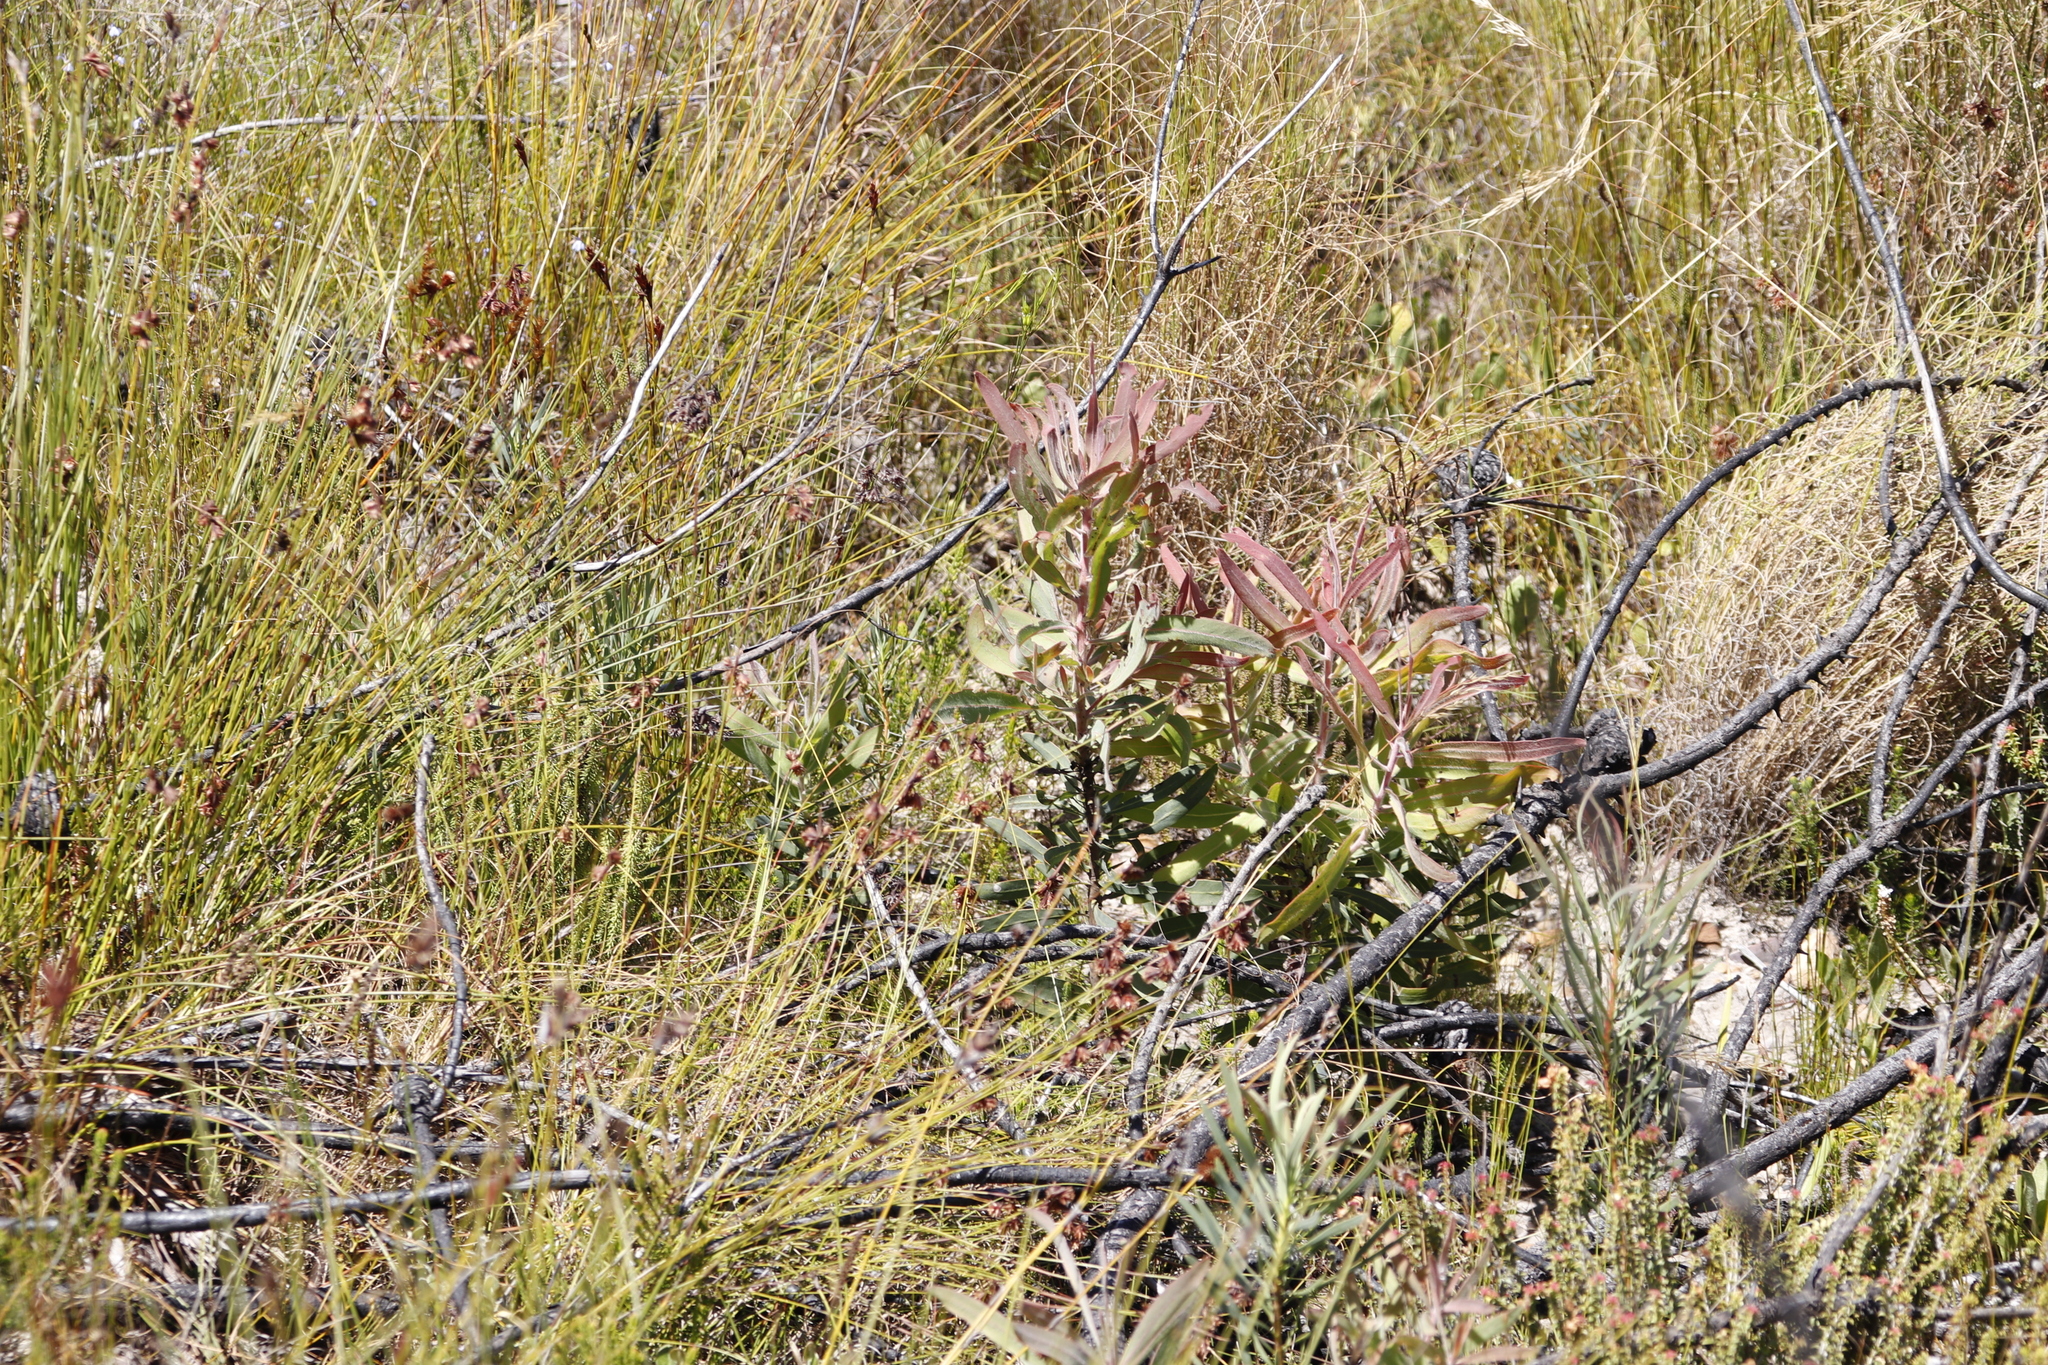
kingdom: Plantae
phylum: Tracheophyta
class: Magnoliopsida
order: Proteales
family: Proteaceae
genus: Protea
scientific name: Protea neriifolia
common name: Blue sugarbush
